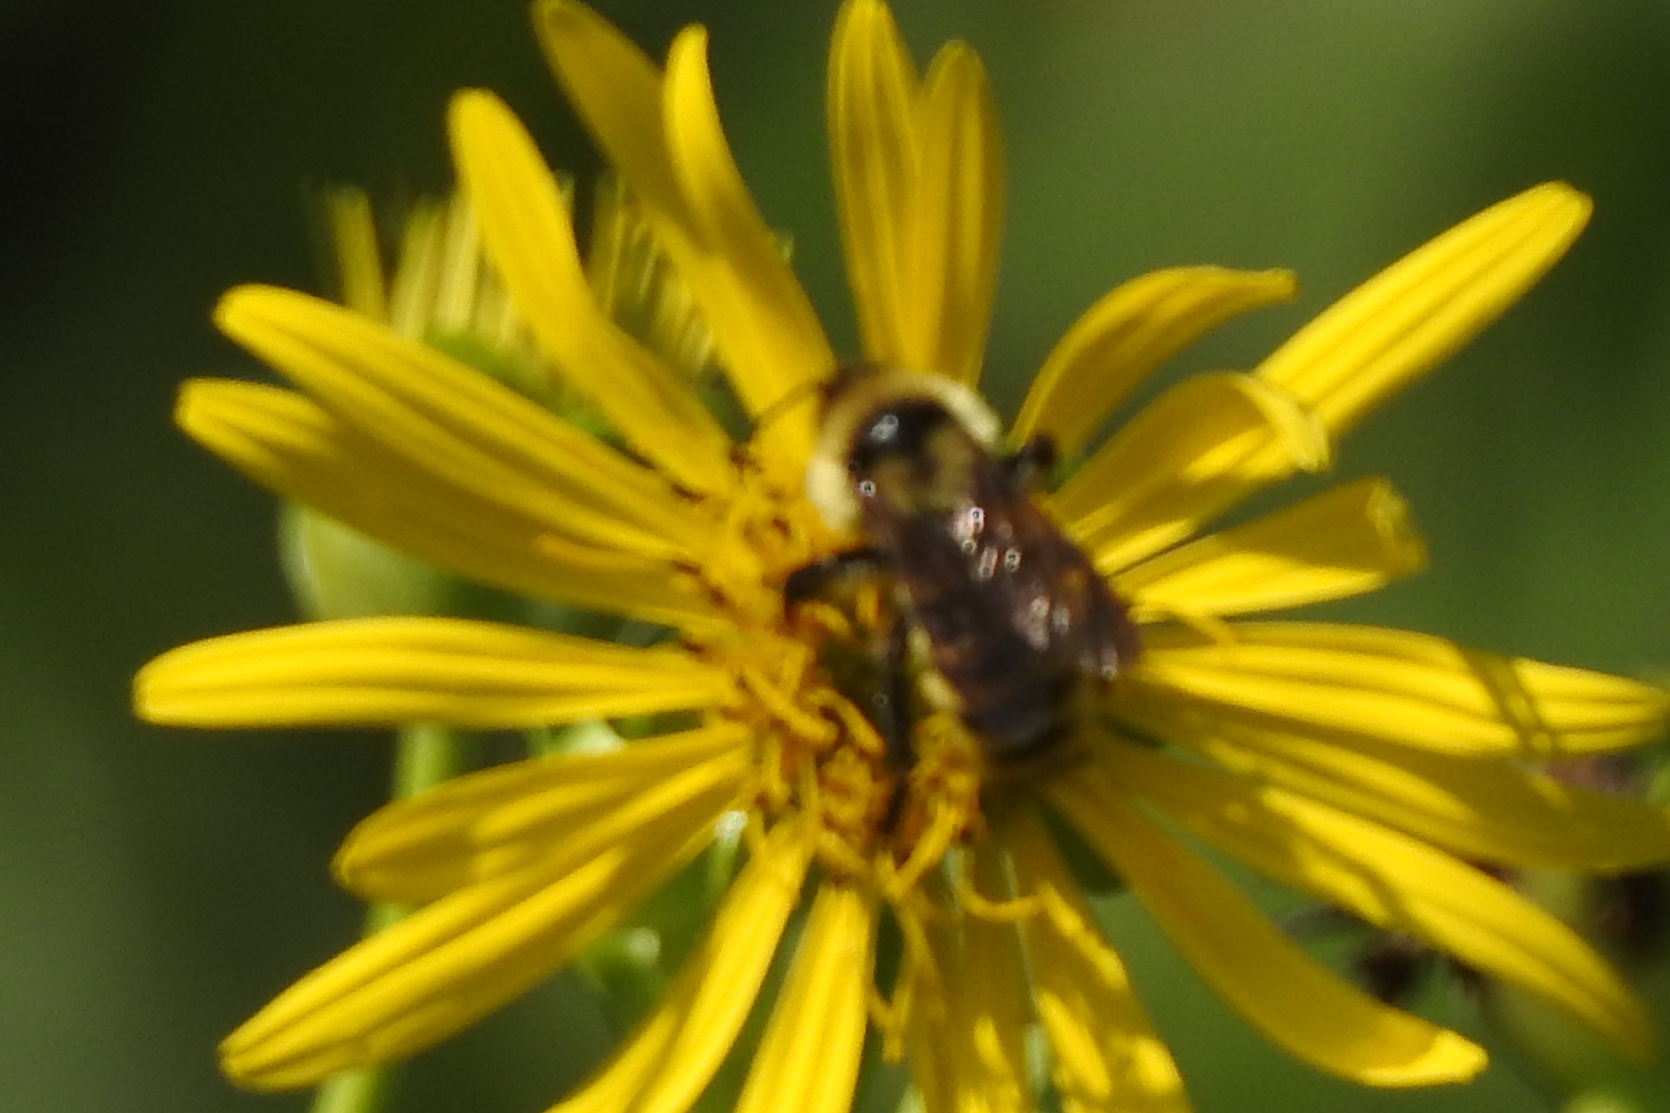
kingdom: Animalia
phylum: Arthropoda
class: Insecta
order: Hymenoptera
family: Apidae
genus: Bombus
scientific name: Bombus fervidus
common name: Yellow bumble bee
